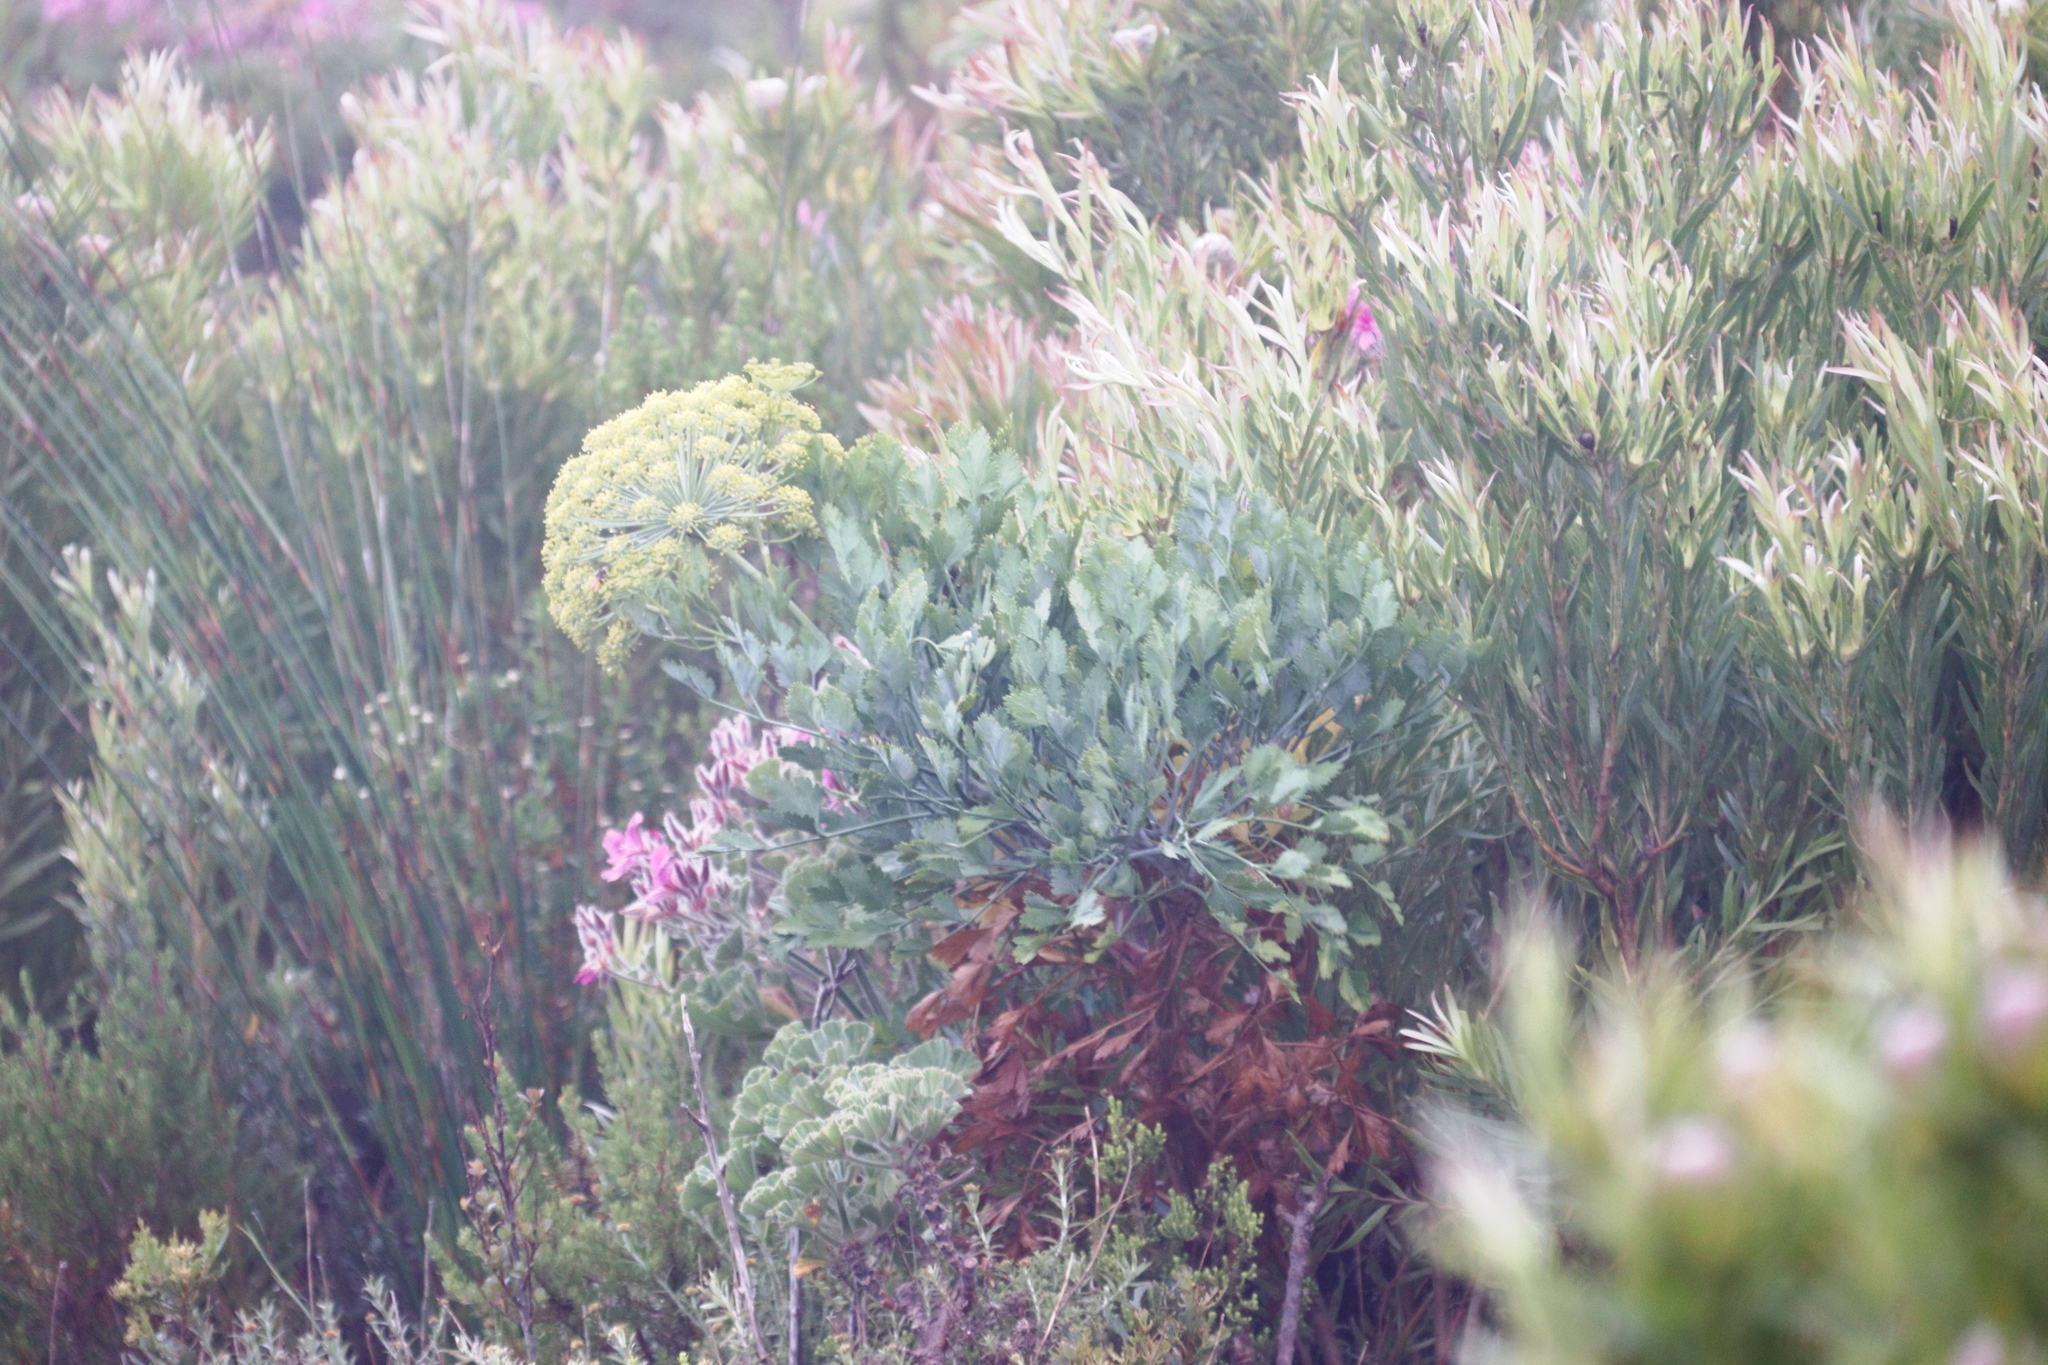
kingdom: Plantae
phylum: Tracheophyta
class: Magnoliopsida
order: Apiales
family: Apiaceae
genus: Notobubon
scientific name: Notobubon galbanum
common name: Blisterbush
